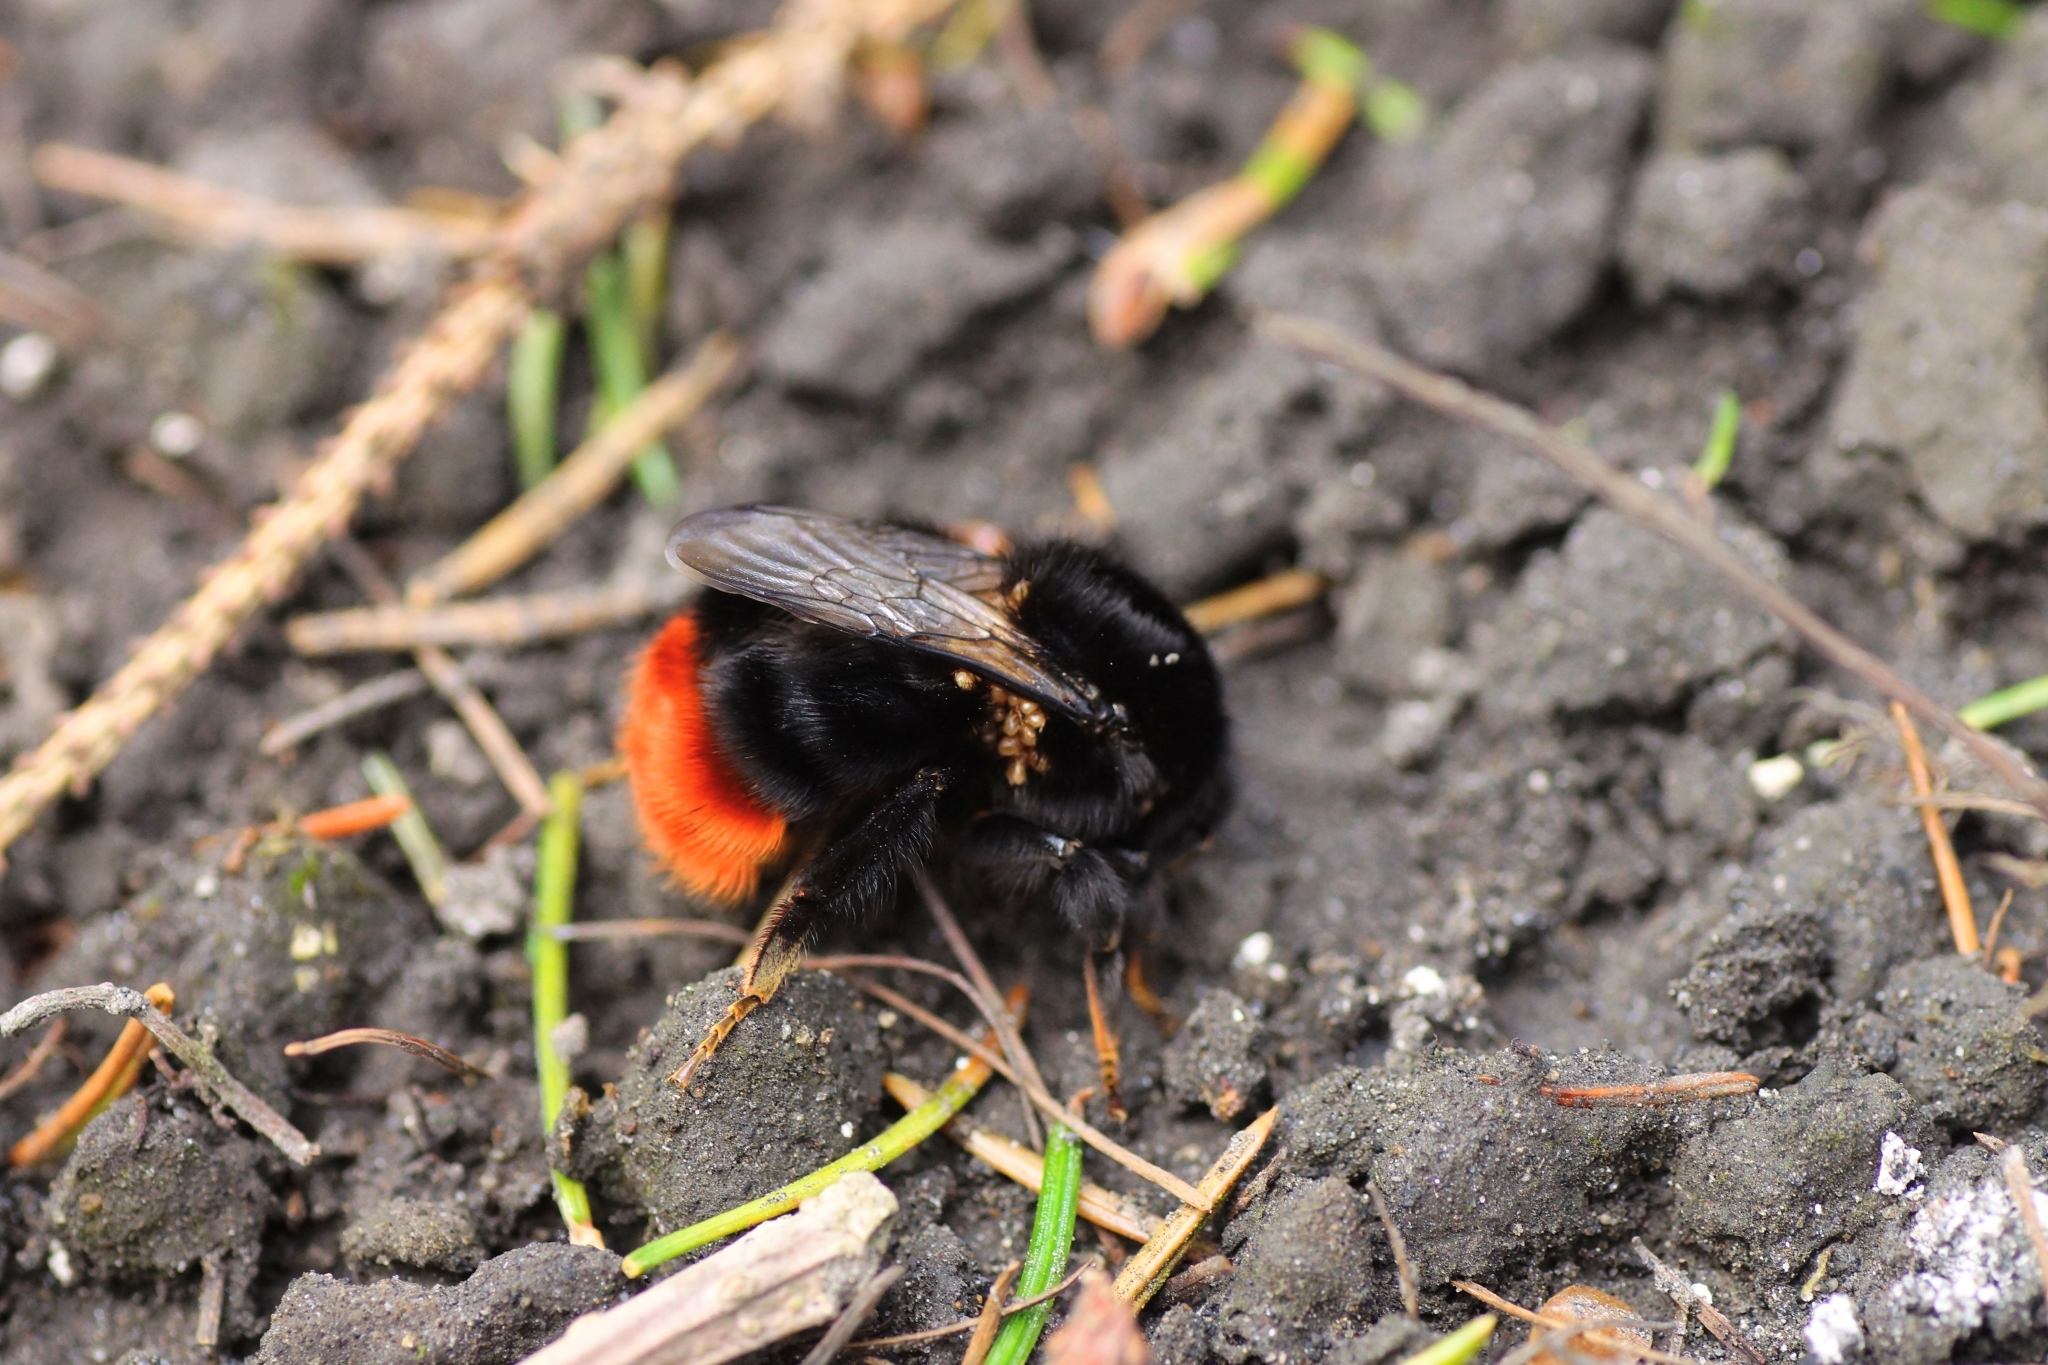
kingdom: Animalia
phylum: Arthropoda
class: Insecta
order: Hymenoptera
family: Apidae
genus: Bombus
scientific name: Bombus lapidarius
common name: Large red-tailed humble-bee
